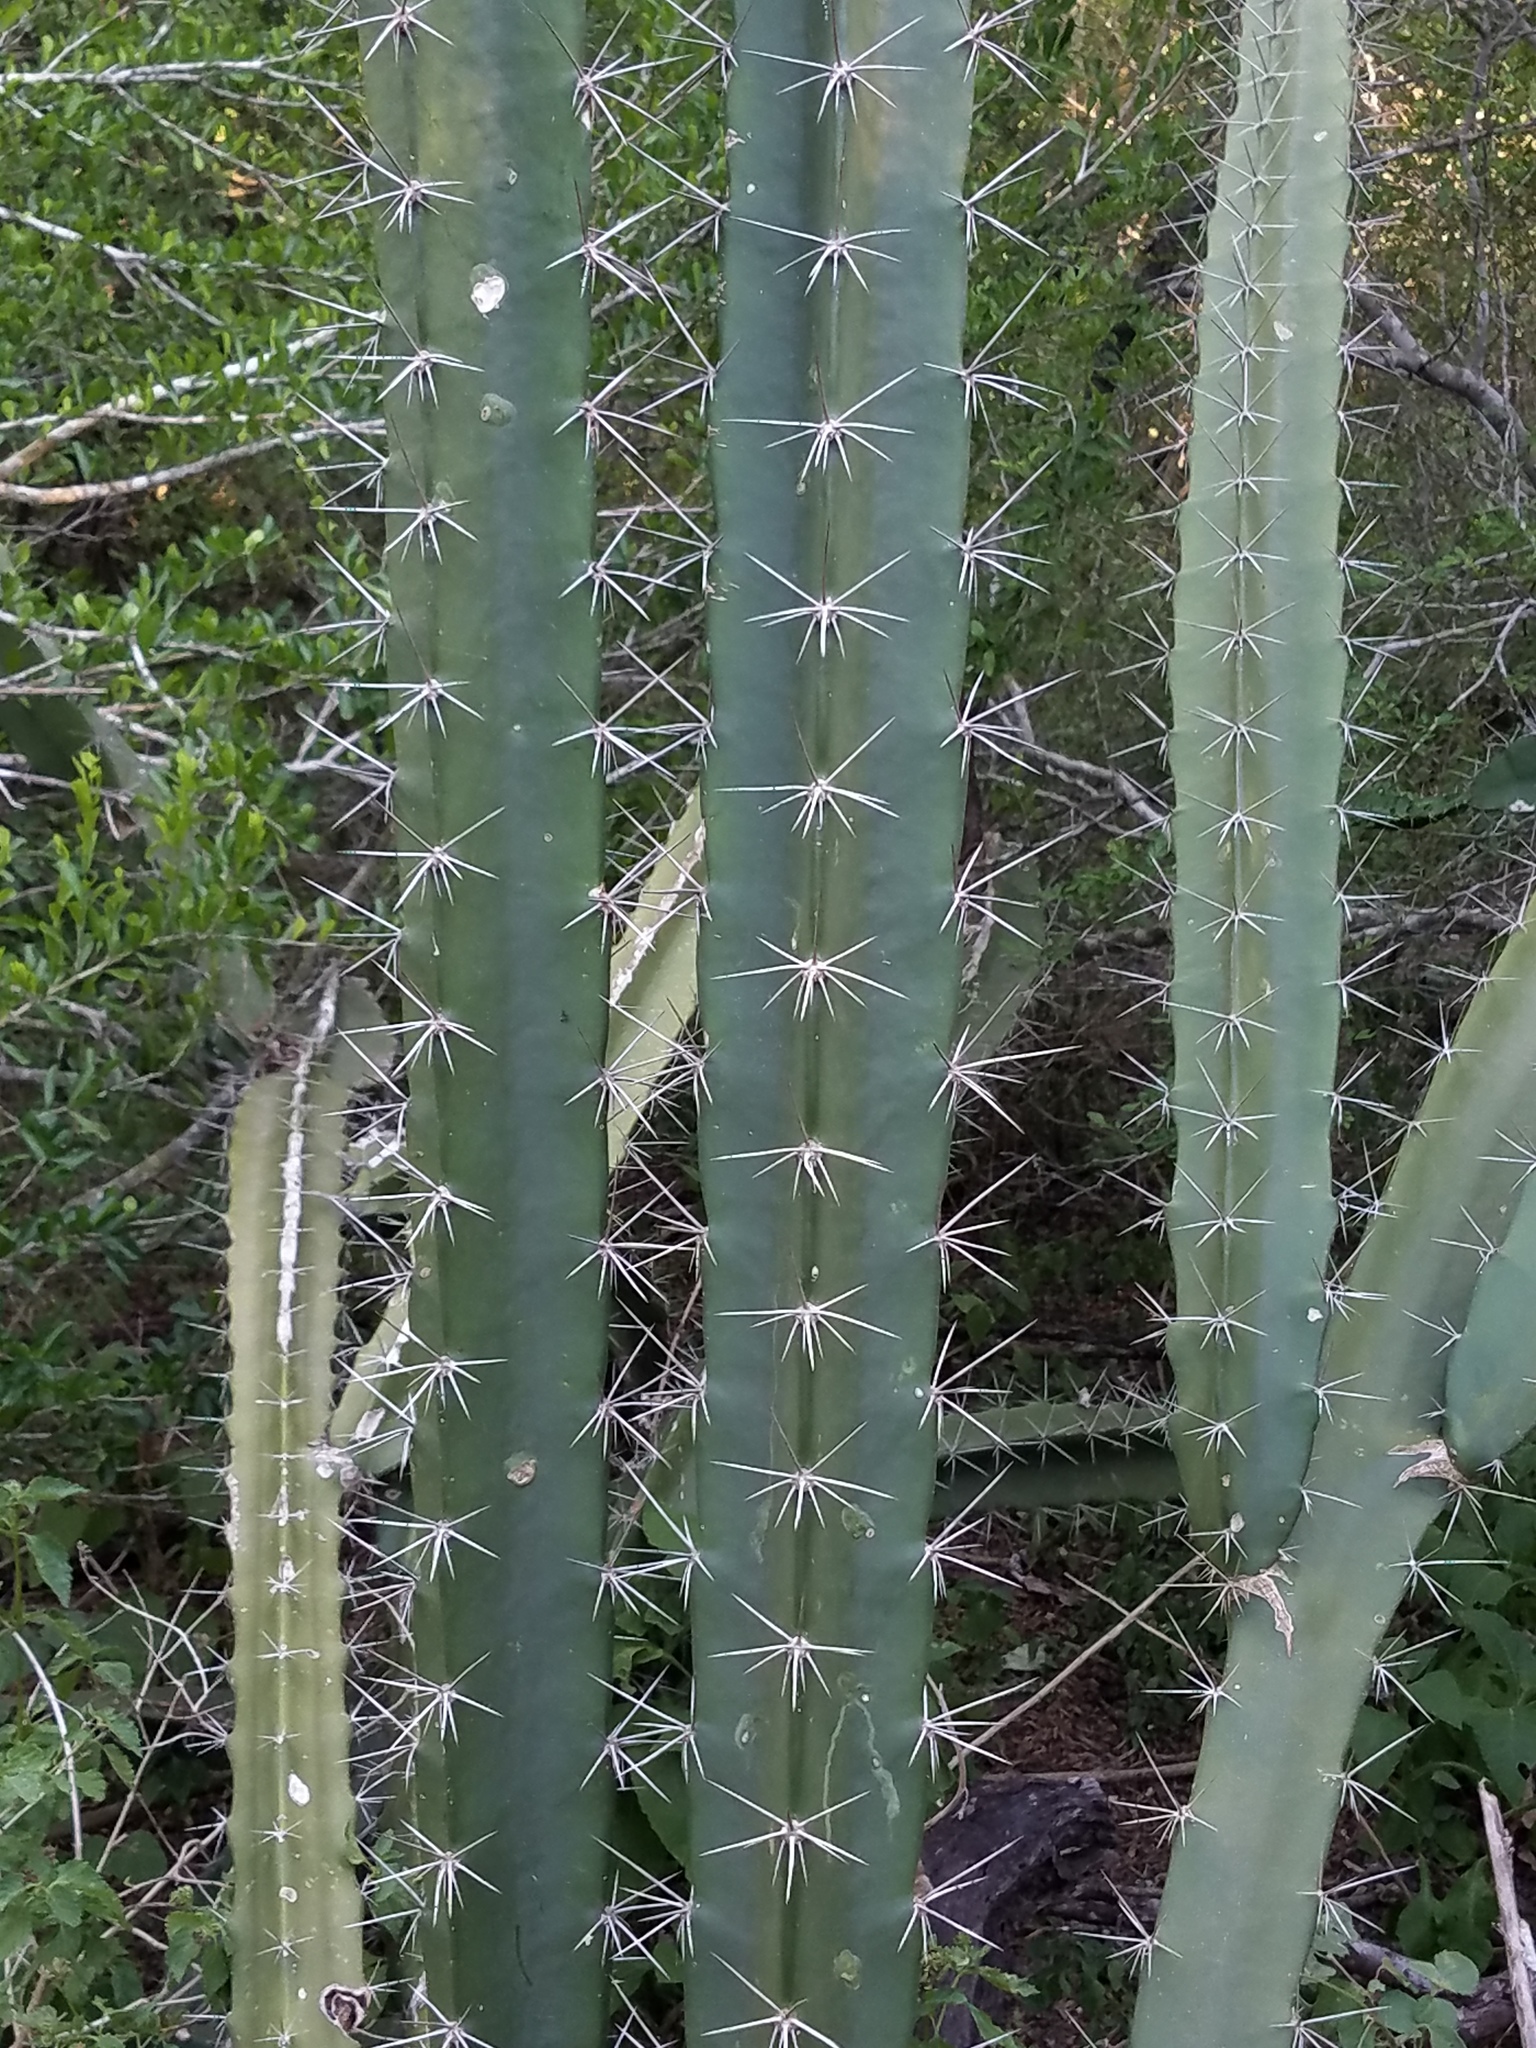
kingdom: Plantae
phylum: Tracheophyta
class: Magnoliopsida
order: Caryophyllales
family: Cactaceae
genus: Acanthocereus
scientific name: Acanthocereus tetragonus
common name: Triangle cactus
